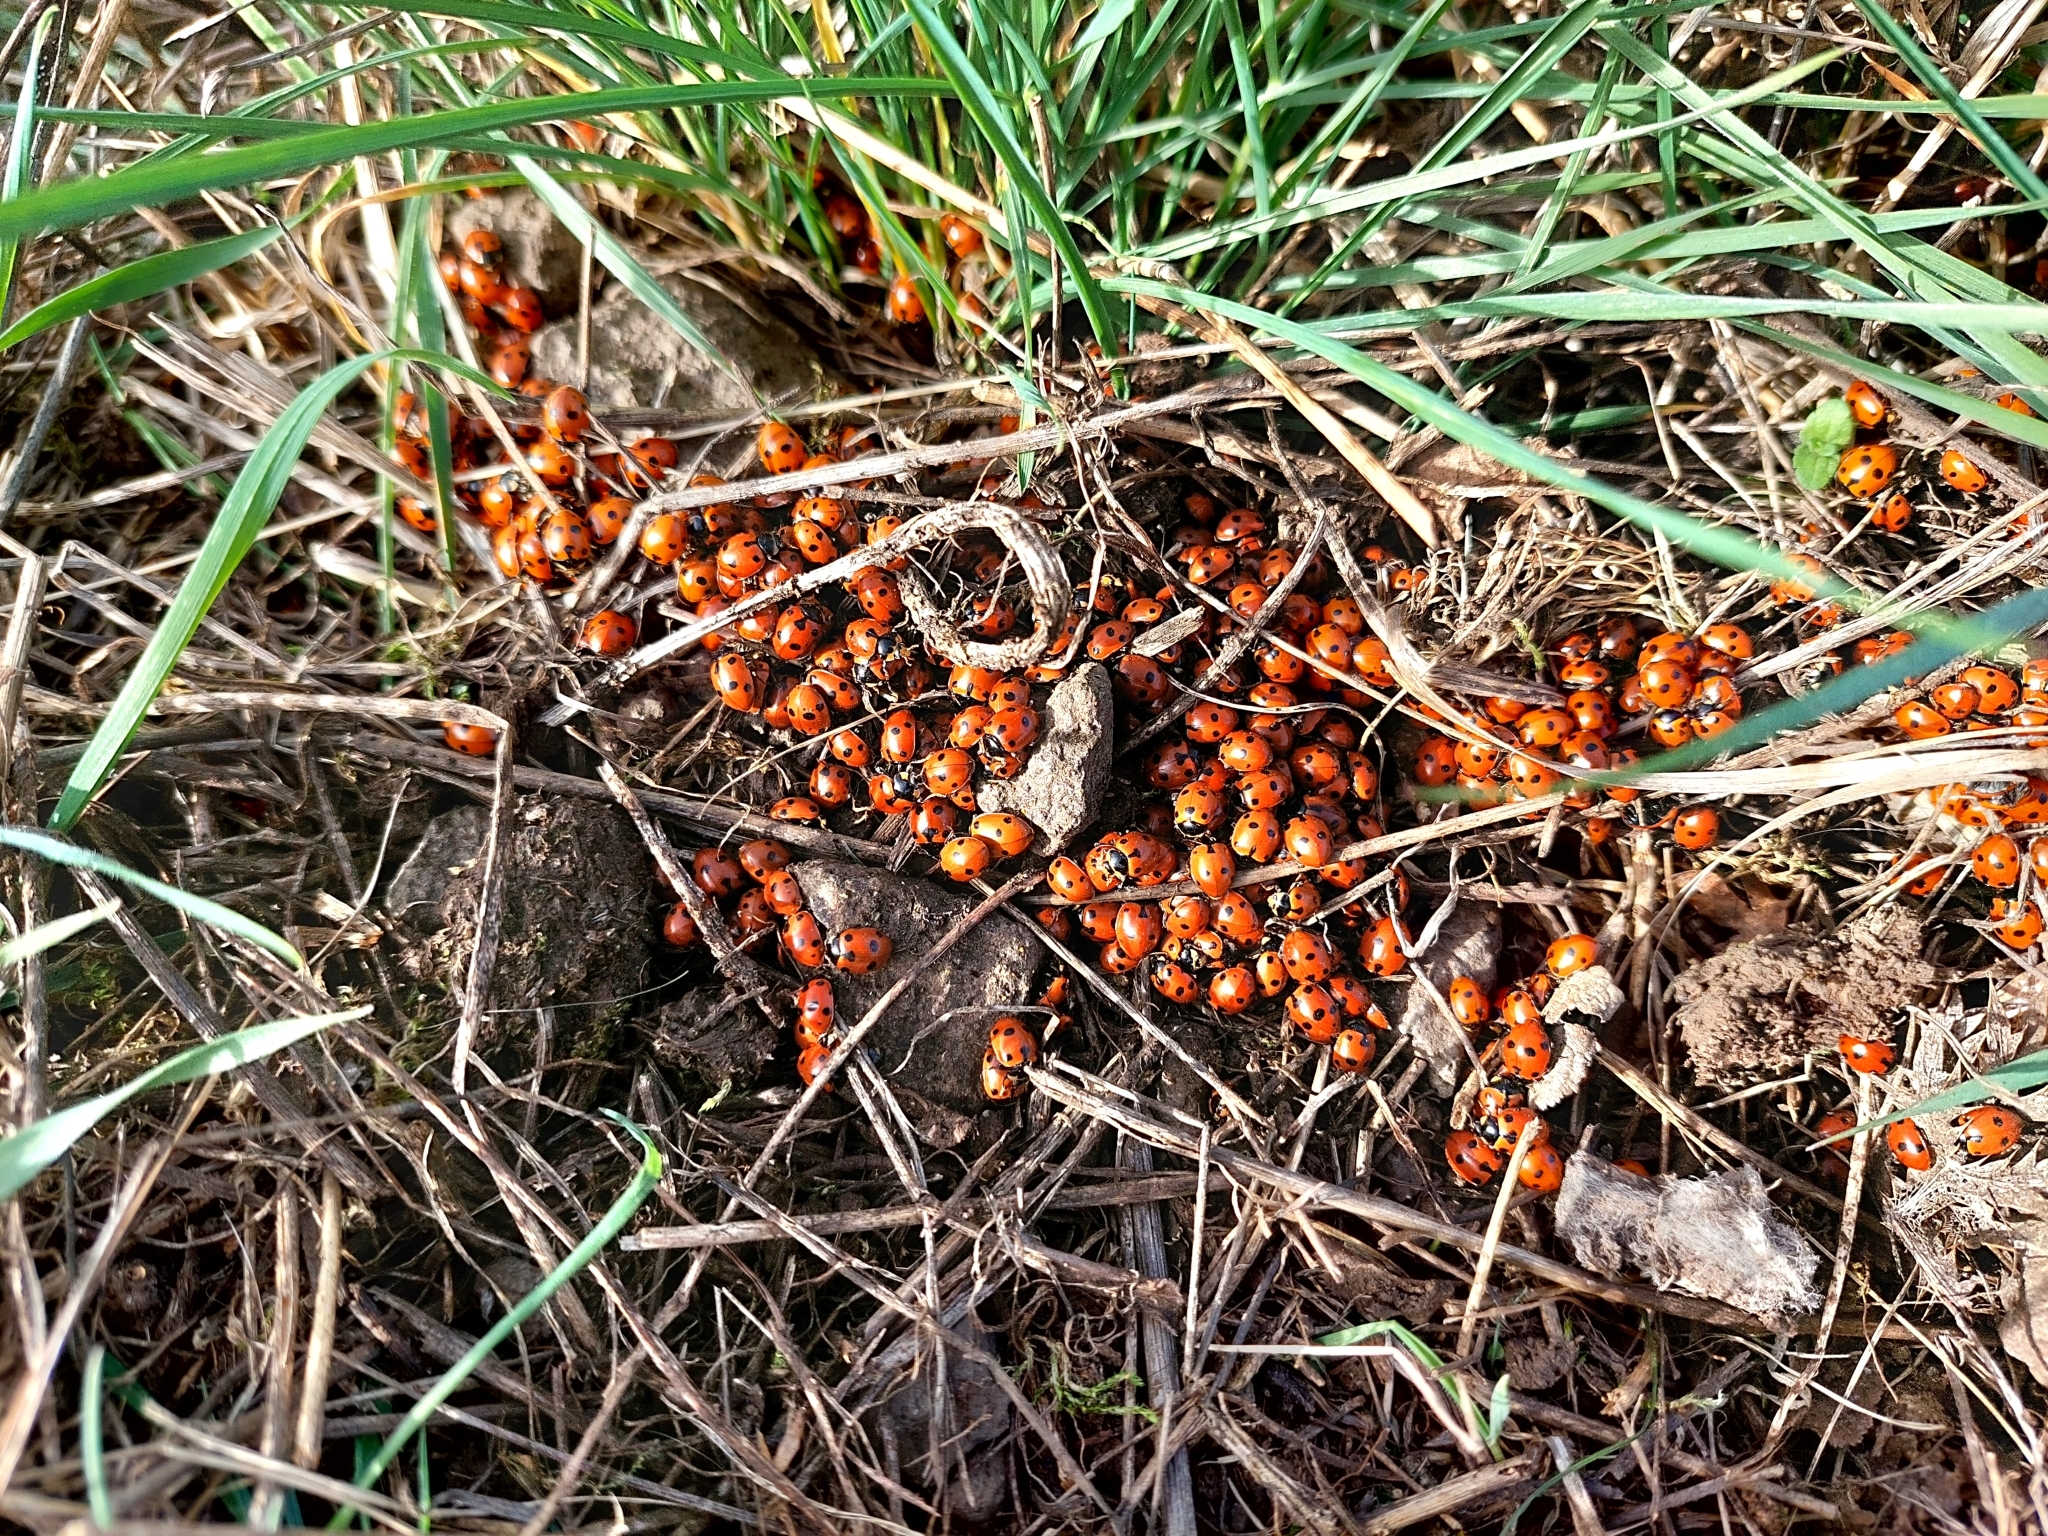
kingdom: Animalia
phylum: Arthropoda
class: Insecta
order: Coleoptera
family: Coccinellidae
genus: Ceratomegilla
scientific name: Ceratomegilla undecimnotata
